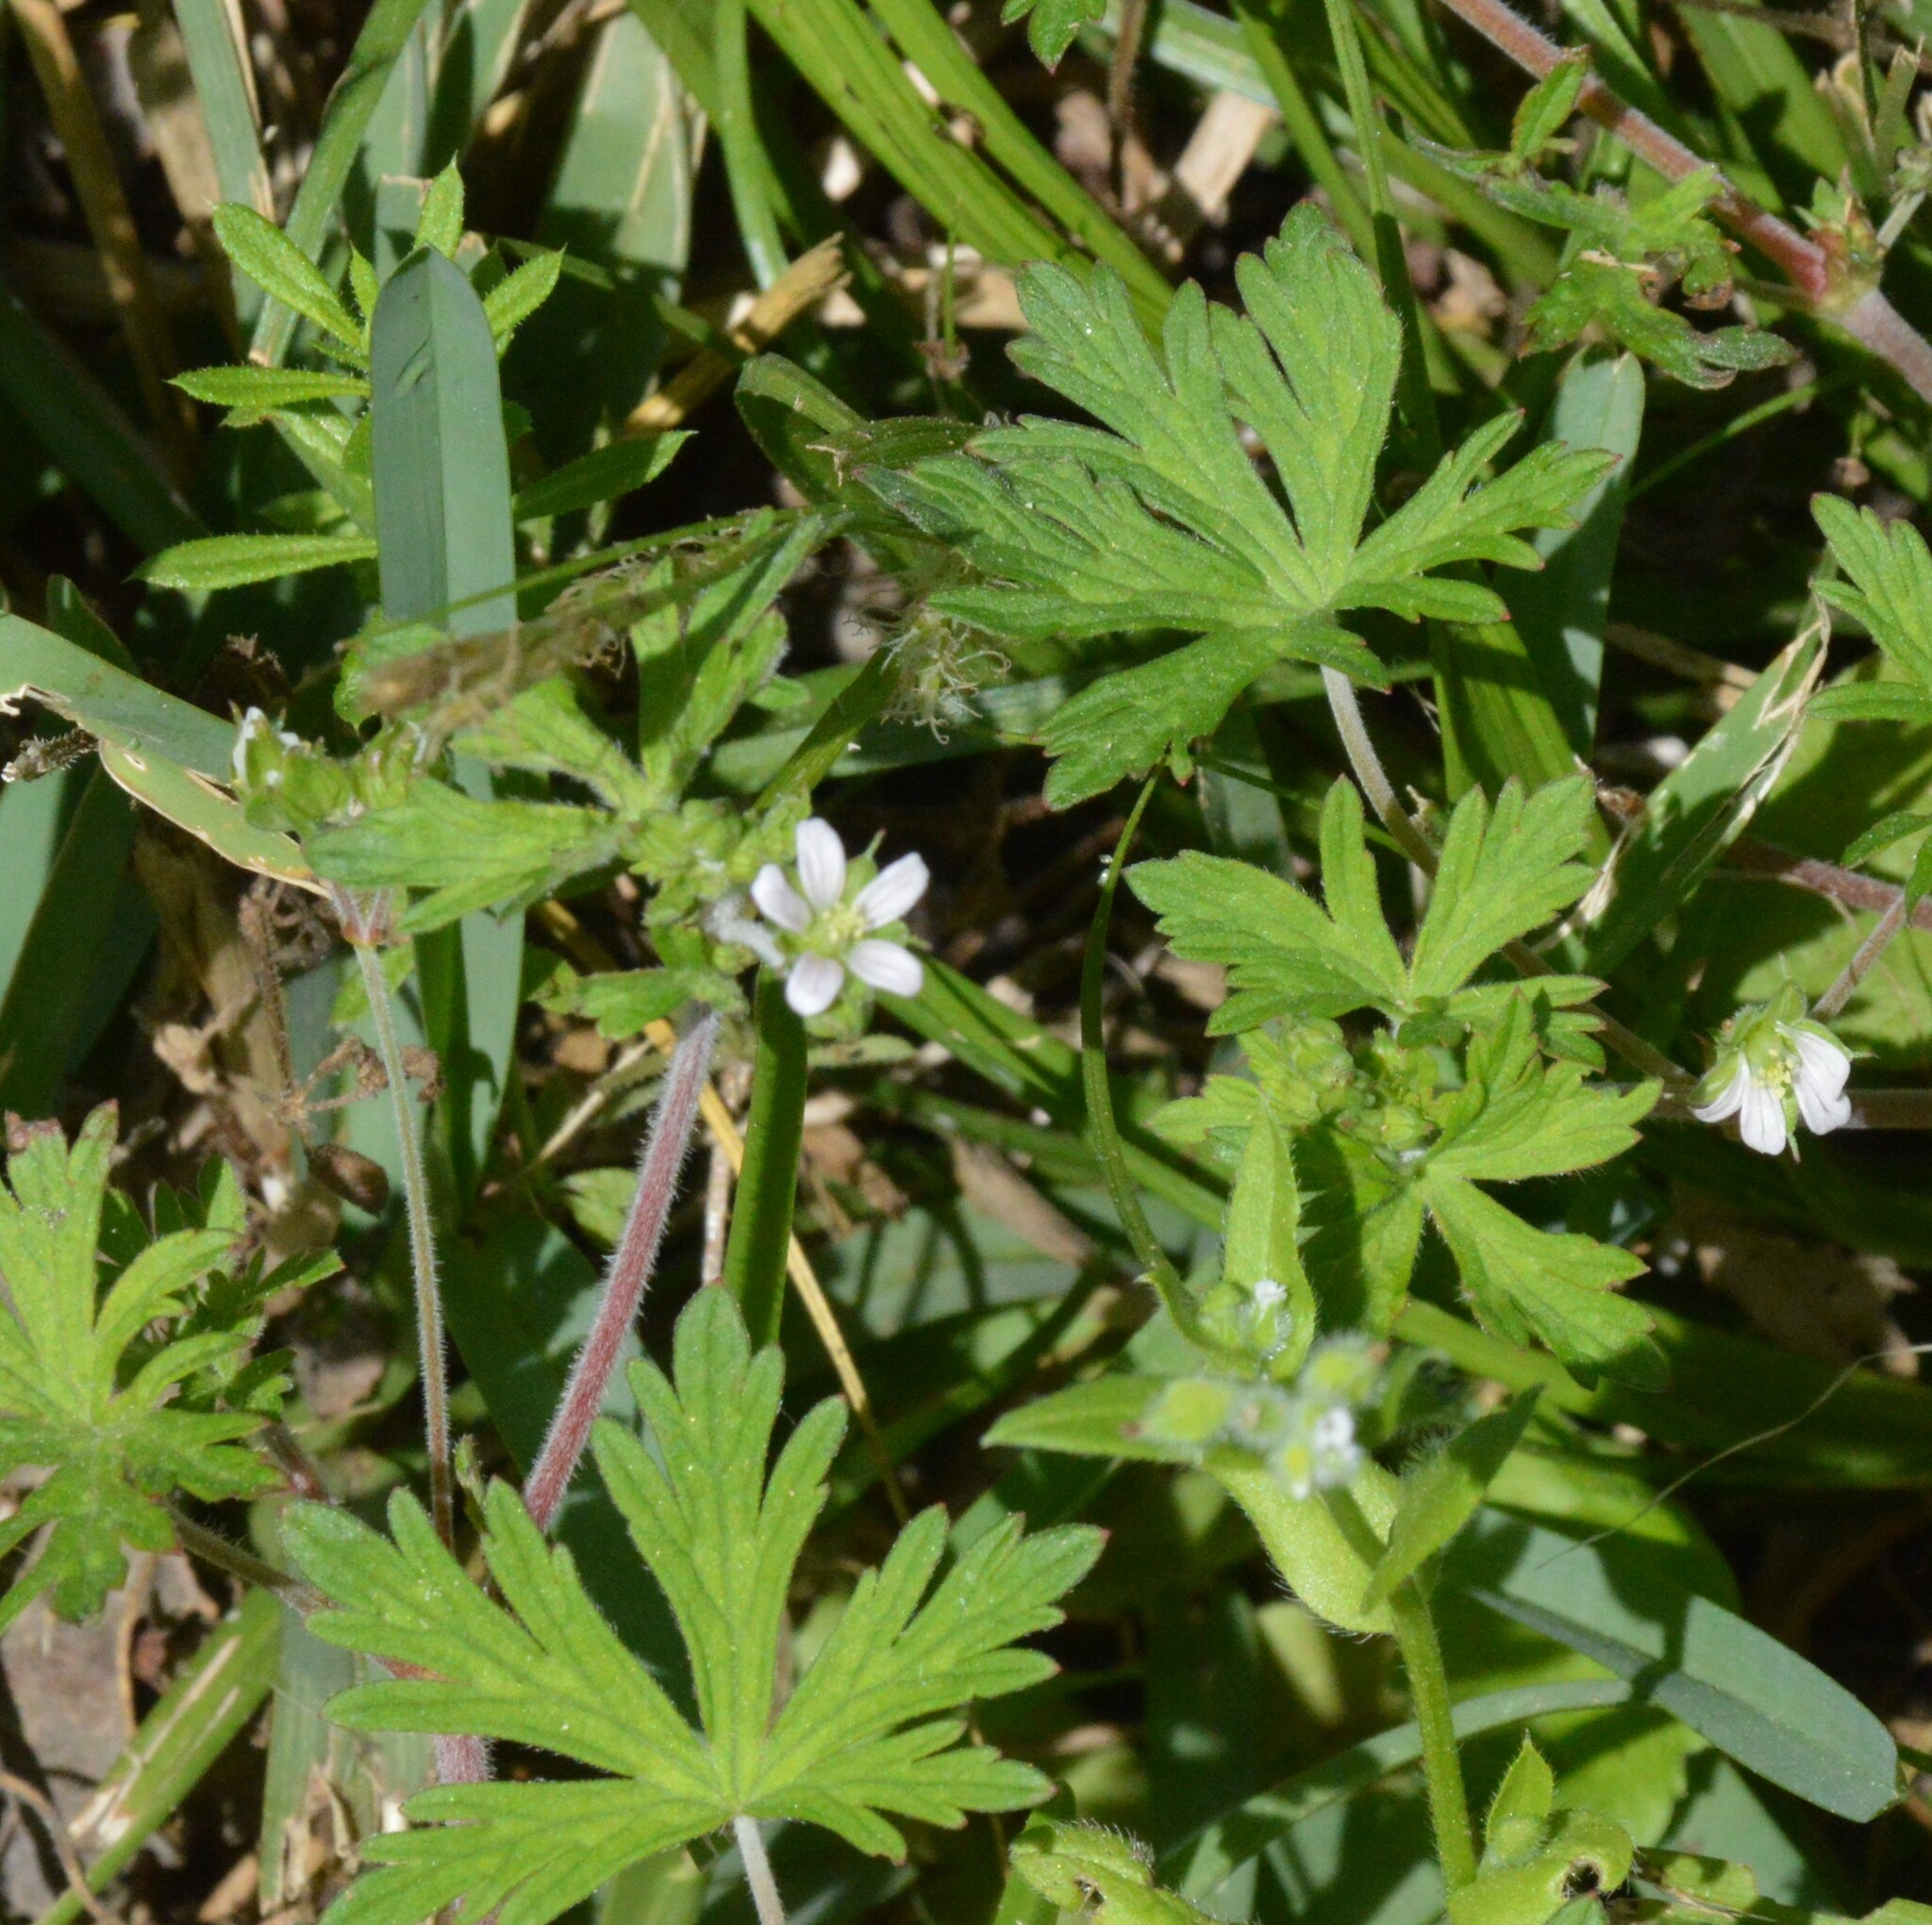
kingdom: Plantae
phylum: Tracheophyta
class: Magnoliopsida
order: Geraniales
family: Geraniaceae
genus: Geranium
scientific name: Geranium carolinianum
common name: Carolina crane's-bill
